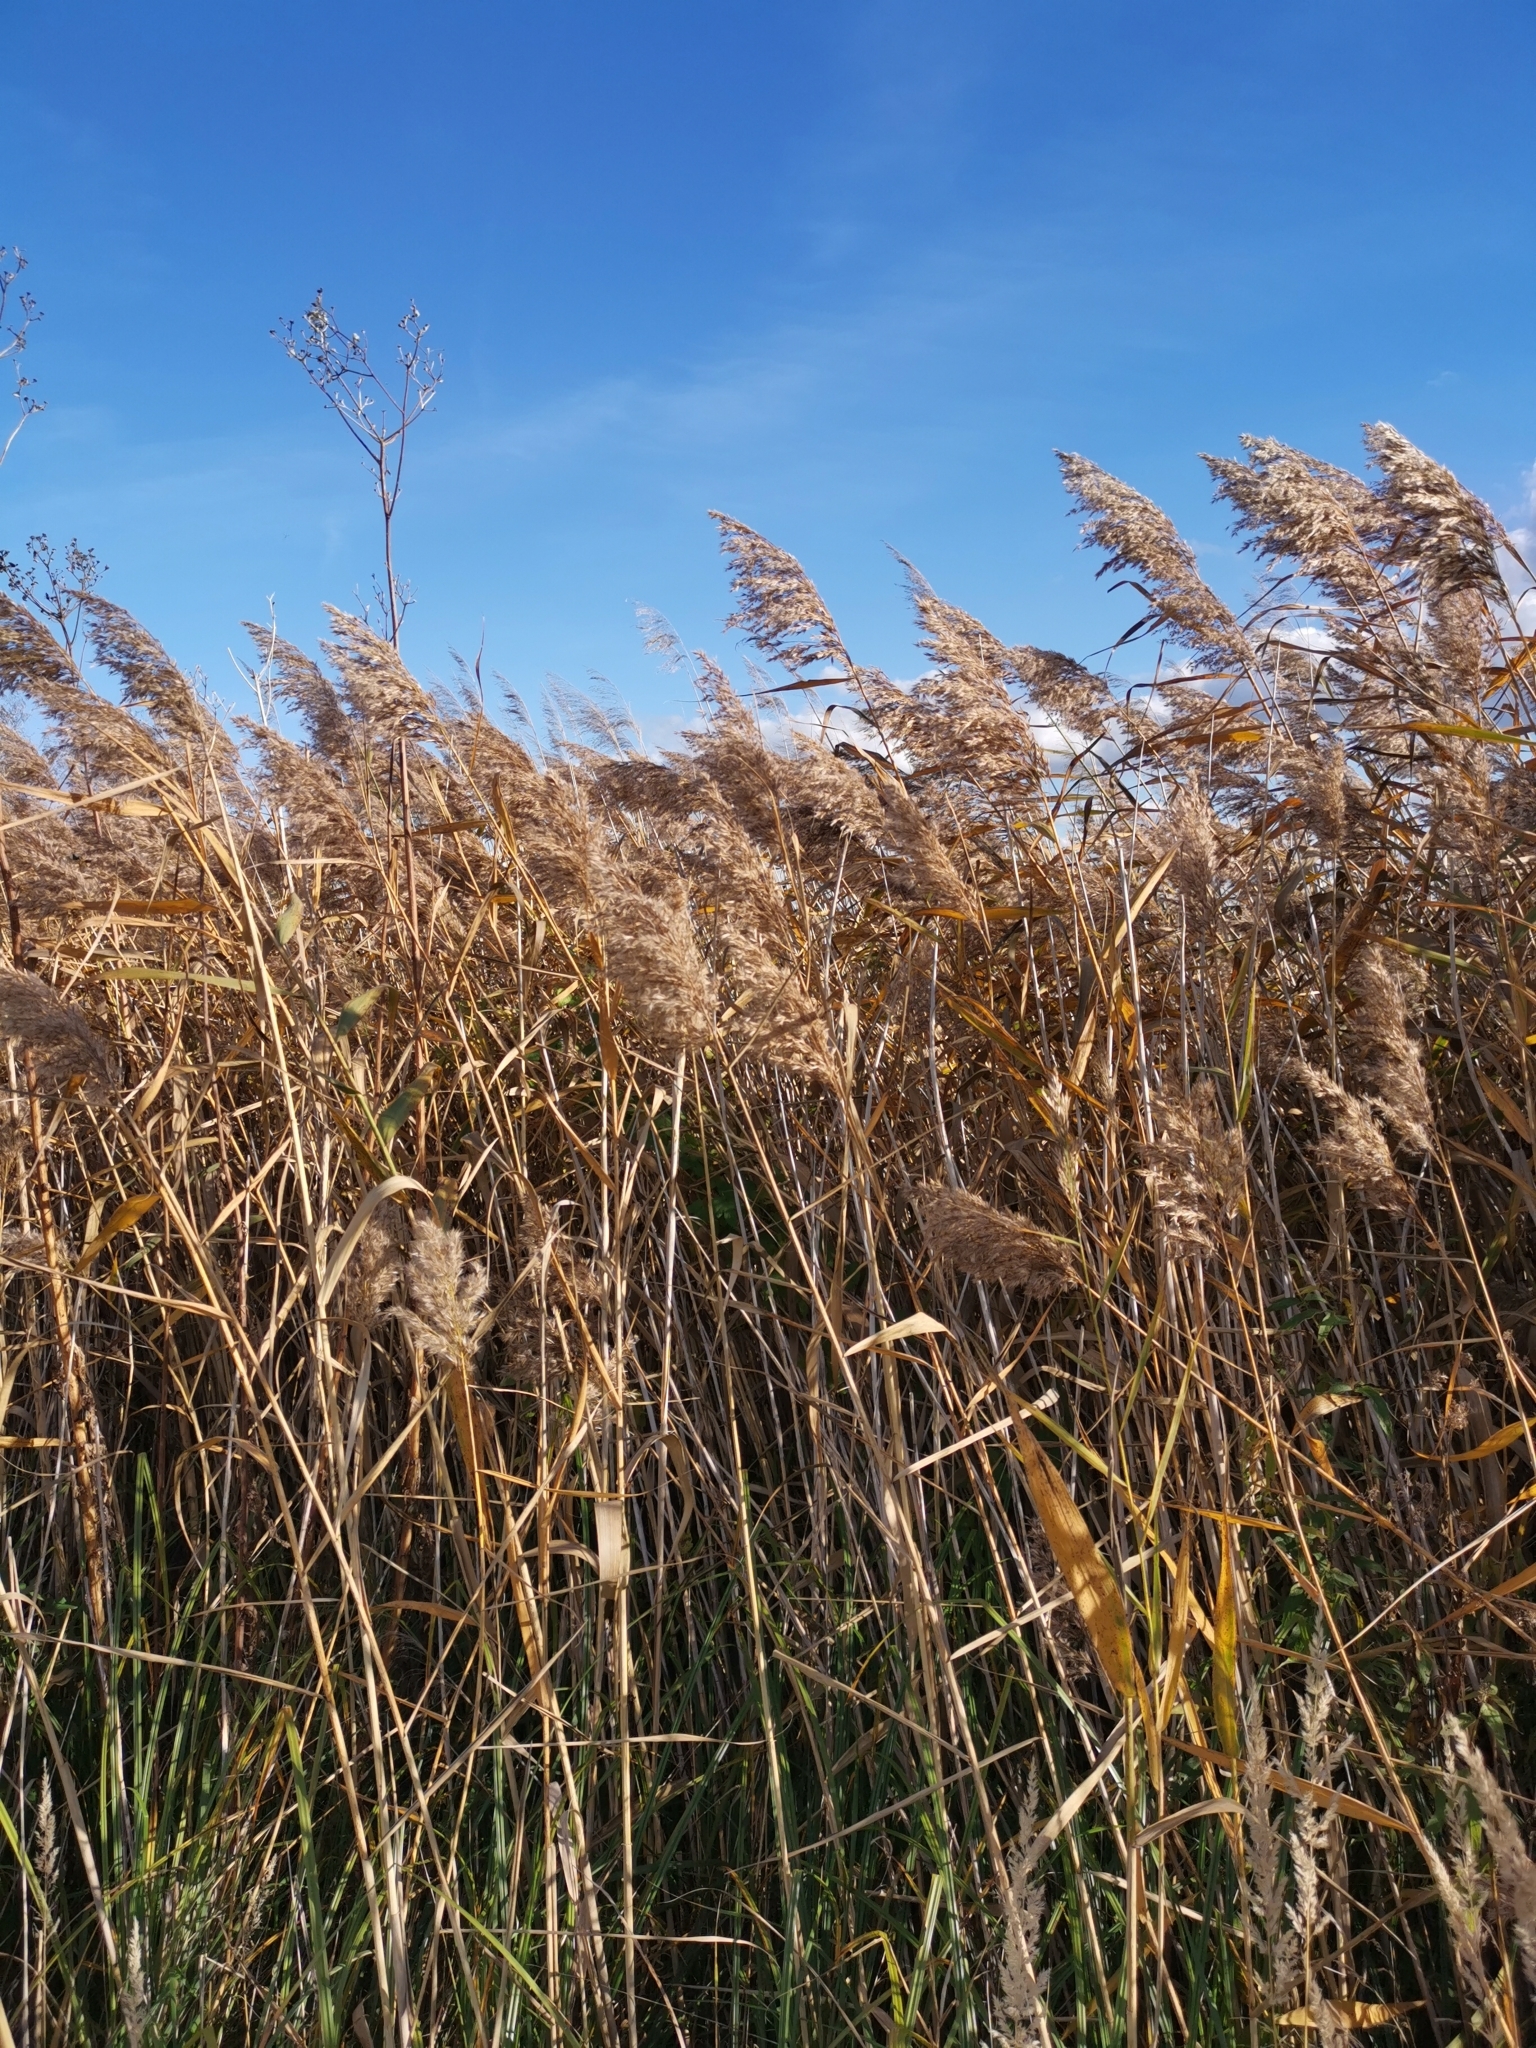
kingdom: Plantae
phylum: Tracheophyta
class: Liliopsida
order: Poales
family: Poaceae
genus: Phragmites
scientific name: Phragmites australis
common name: Common reed
